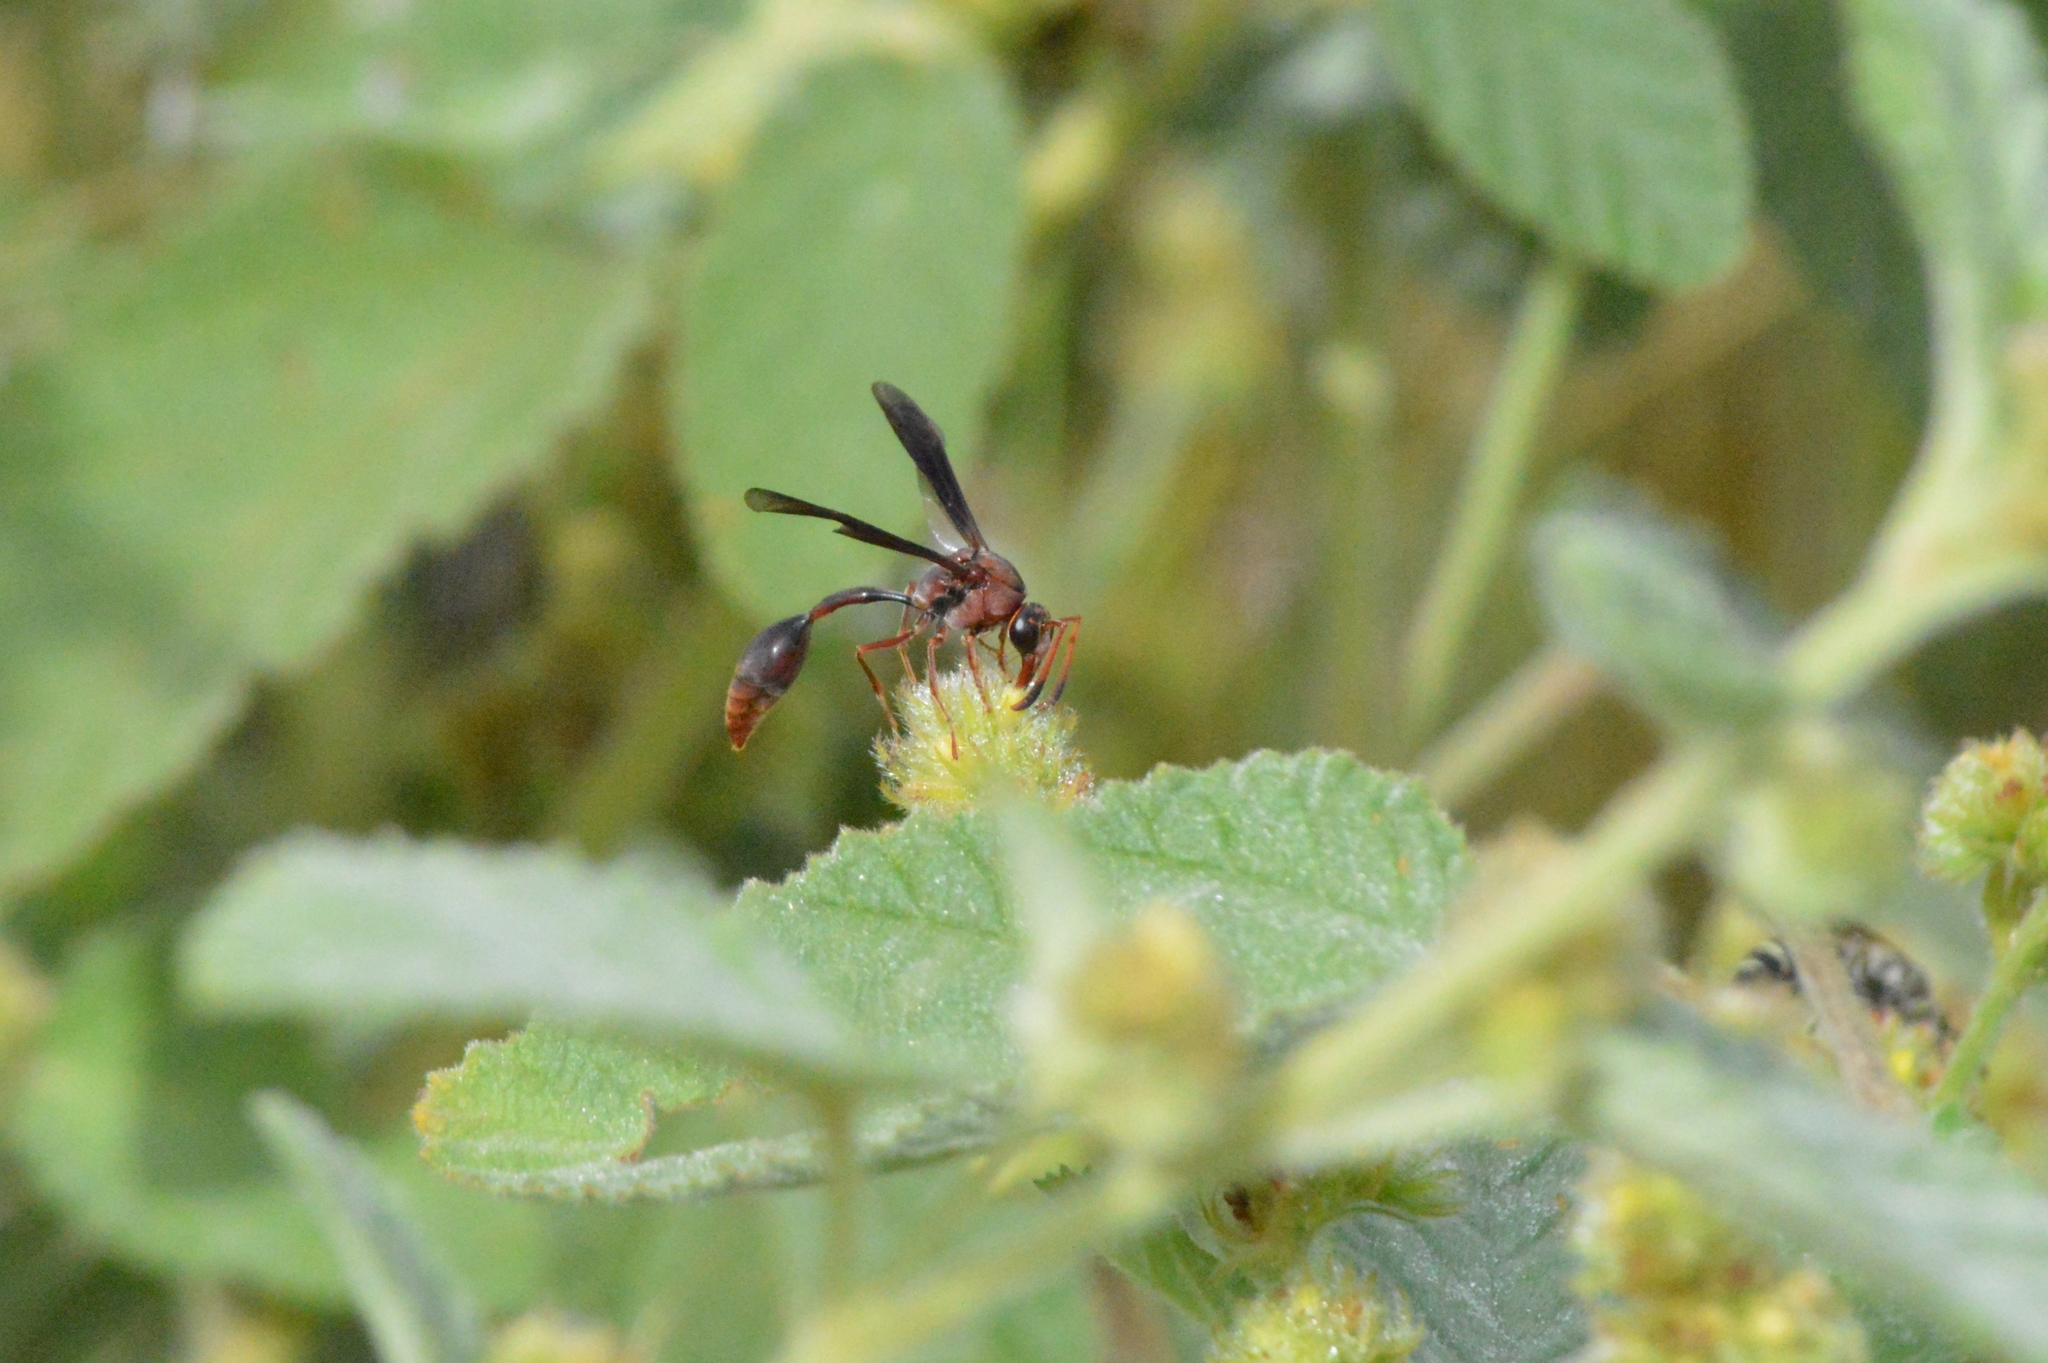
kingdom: Animalia
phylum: Arthropoda
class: Insecta
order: Hymenoptera
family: Eumenidae
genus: Zeta
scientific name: Zeta argillaceum
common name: Potter wasp
